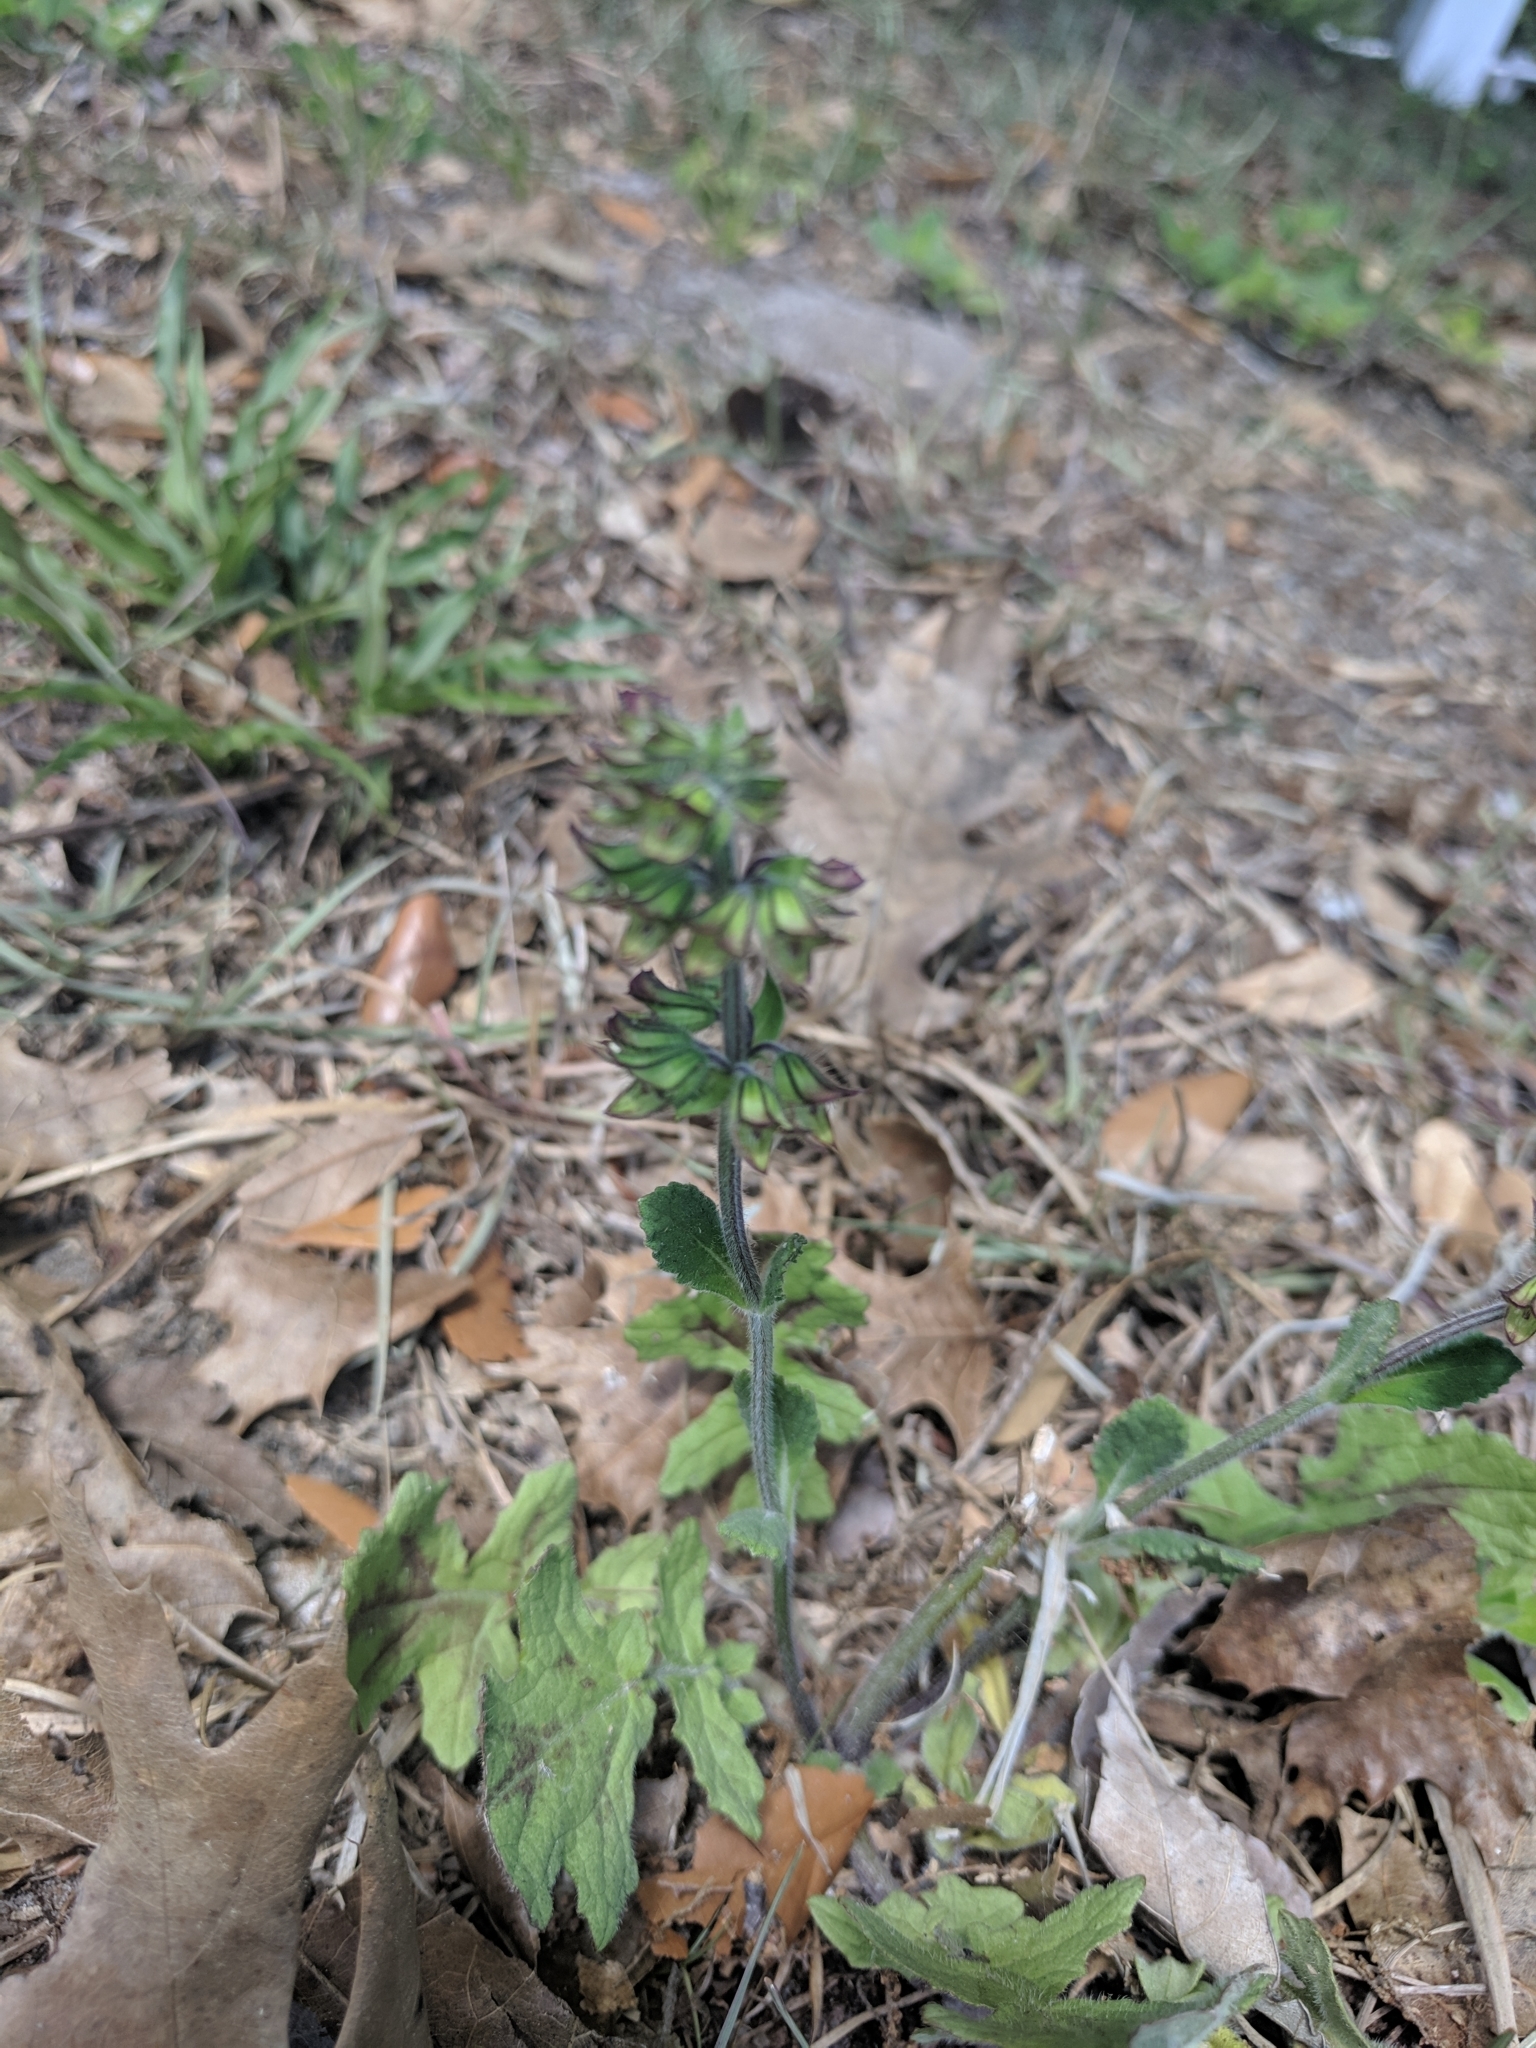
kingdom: Plantae
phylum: Tracheophyta
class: Magnoliopsida
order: Lamiales
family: Lamiaceae
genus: Salvia
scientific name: Salvia lyrata
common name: Cancerweed
